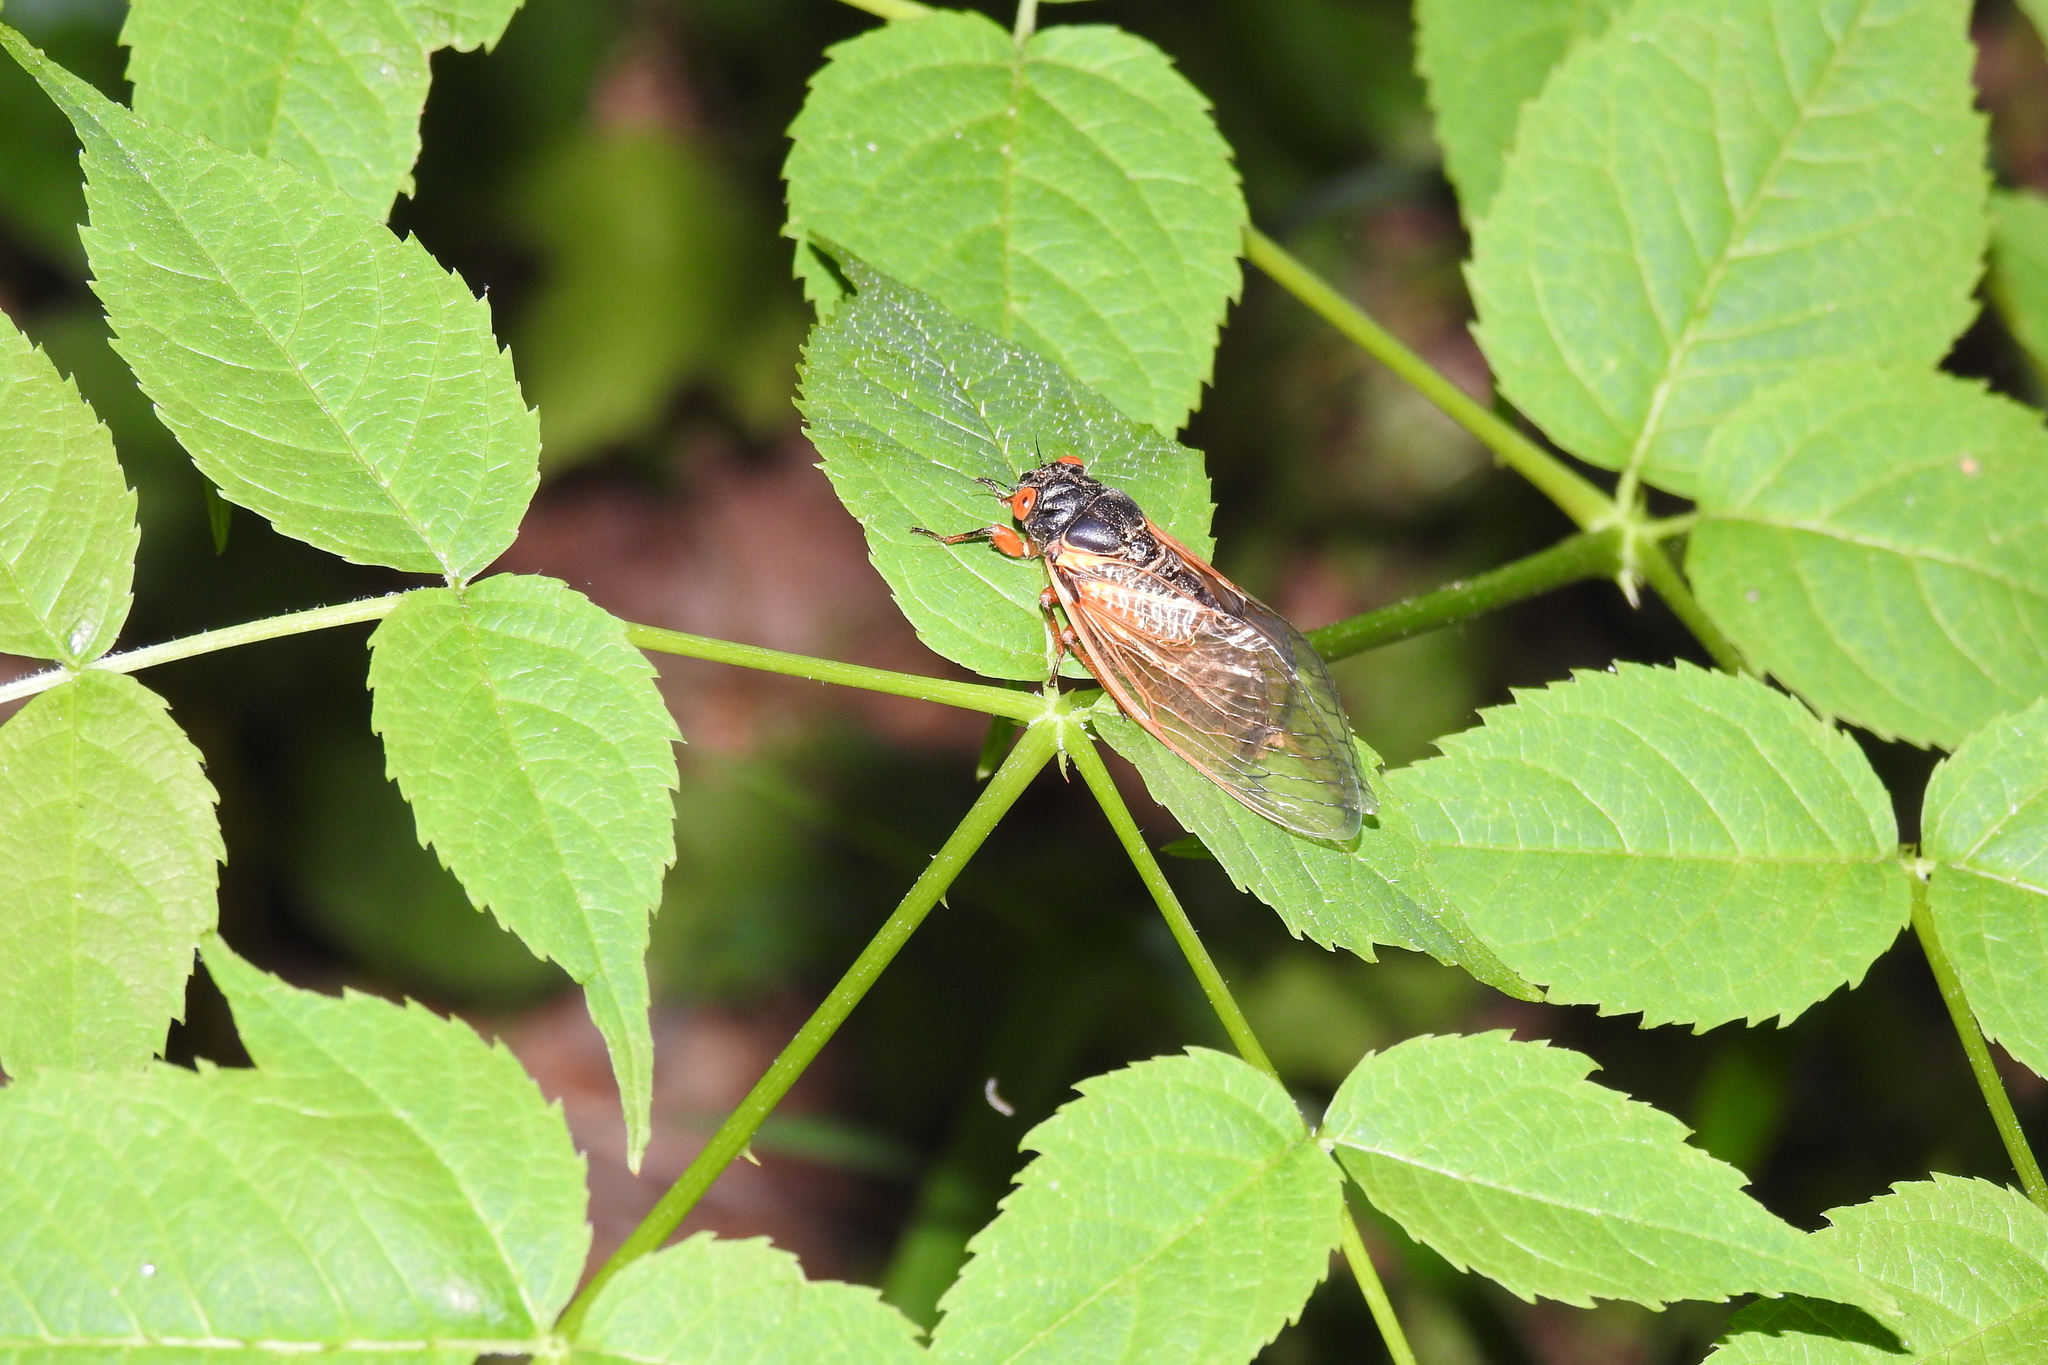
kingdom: Animalia
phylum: Arthropoda
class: Insecta
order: Hemiptera
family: Cicadidae
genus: Magicicada
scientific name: Magicicada
